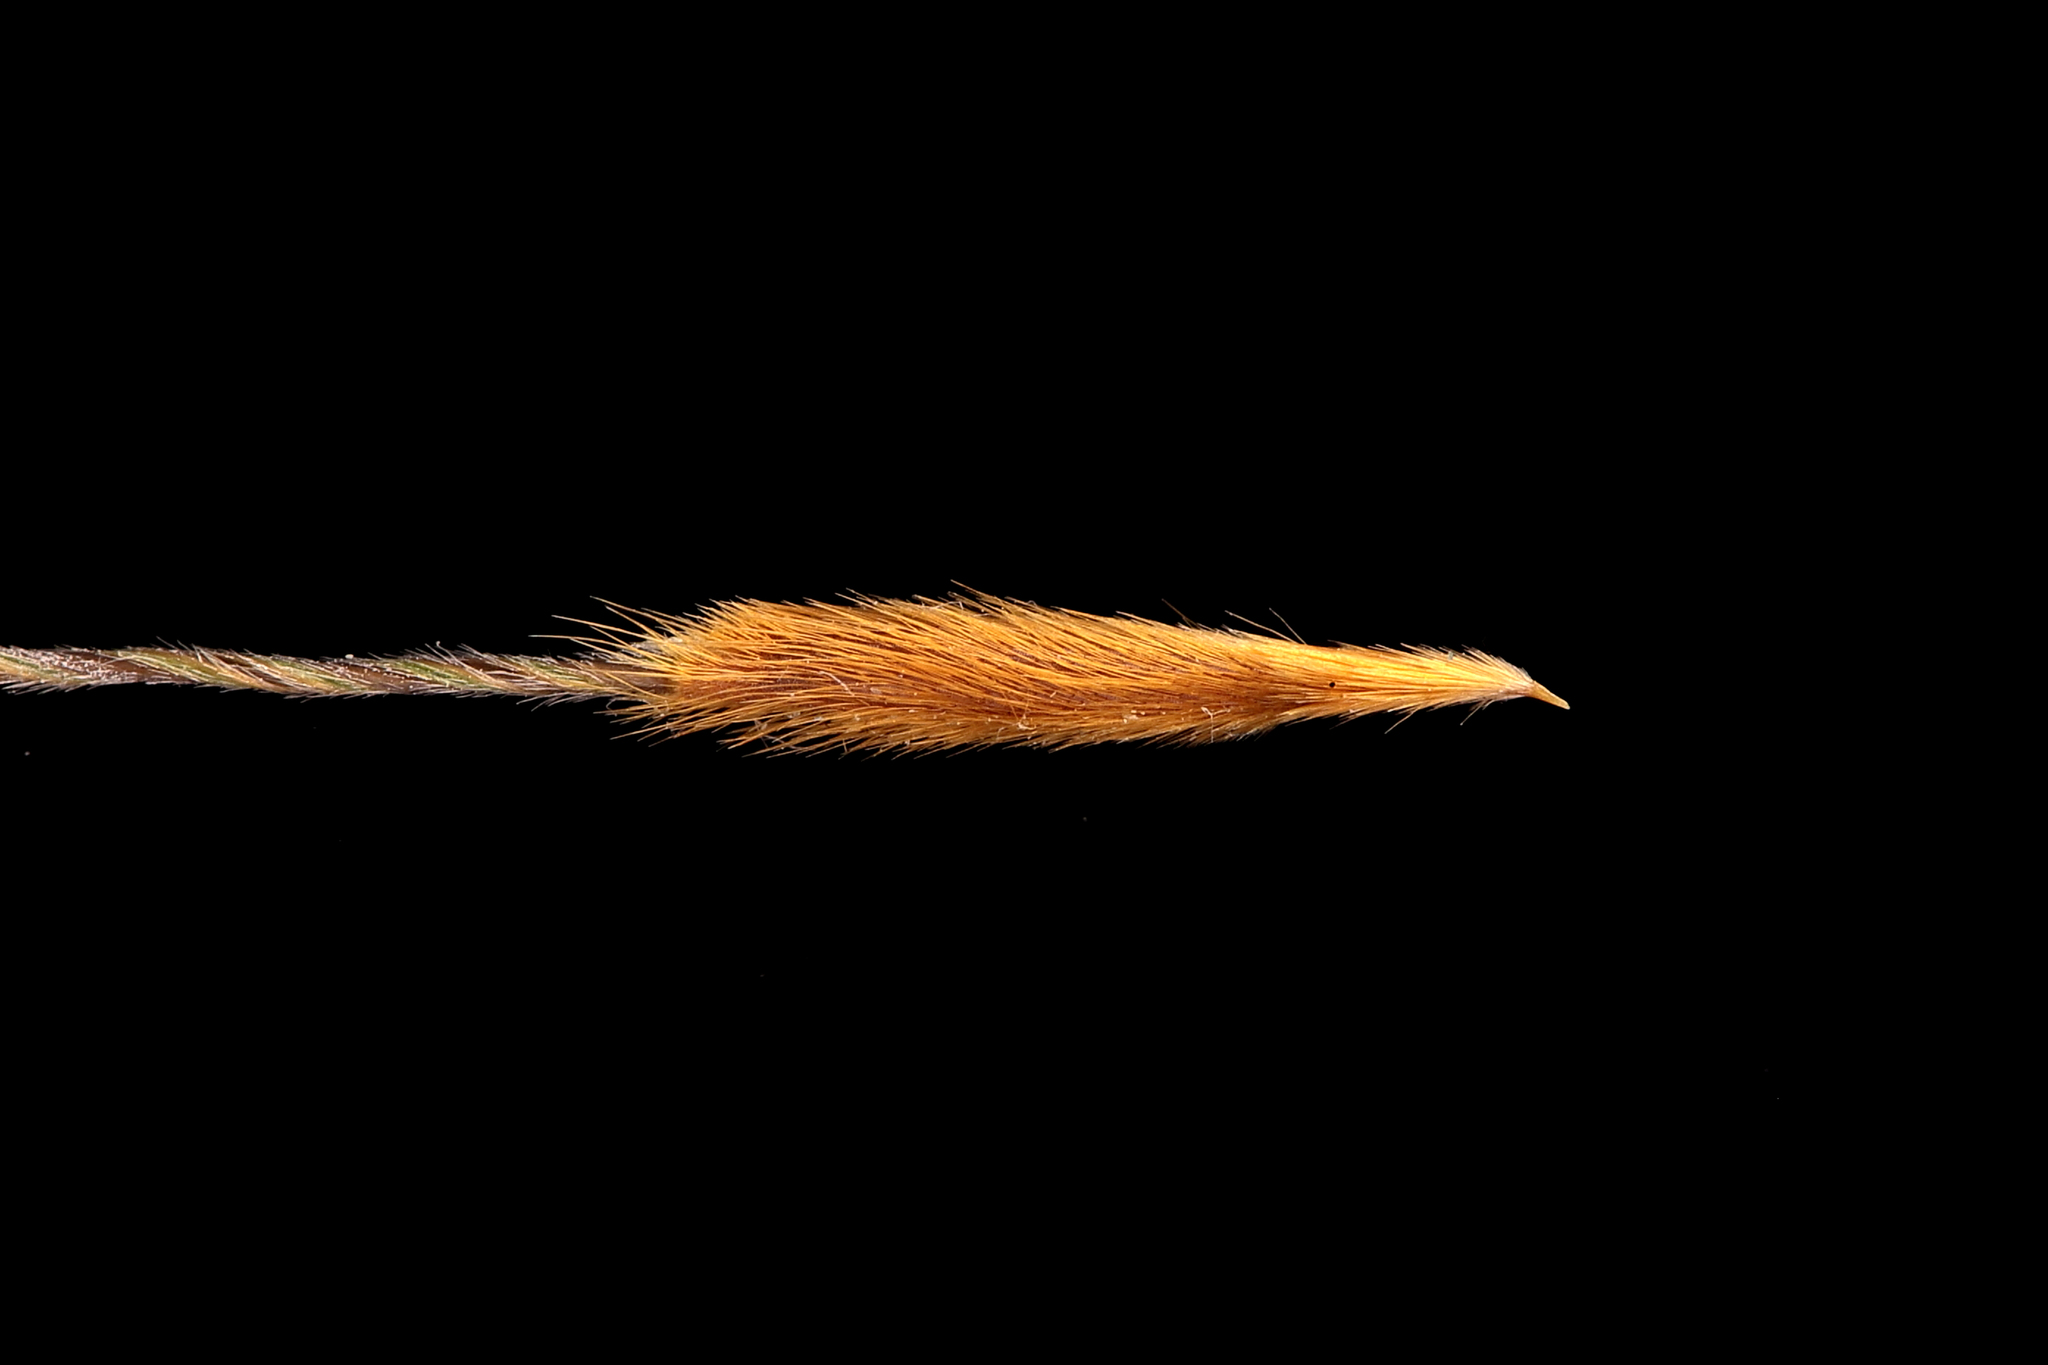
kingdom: Plantae
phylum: Tracheophyta
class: Liliopsida
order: Poales
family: Poaceae
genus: Austrostipa
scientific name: Austrostipa eremophila
